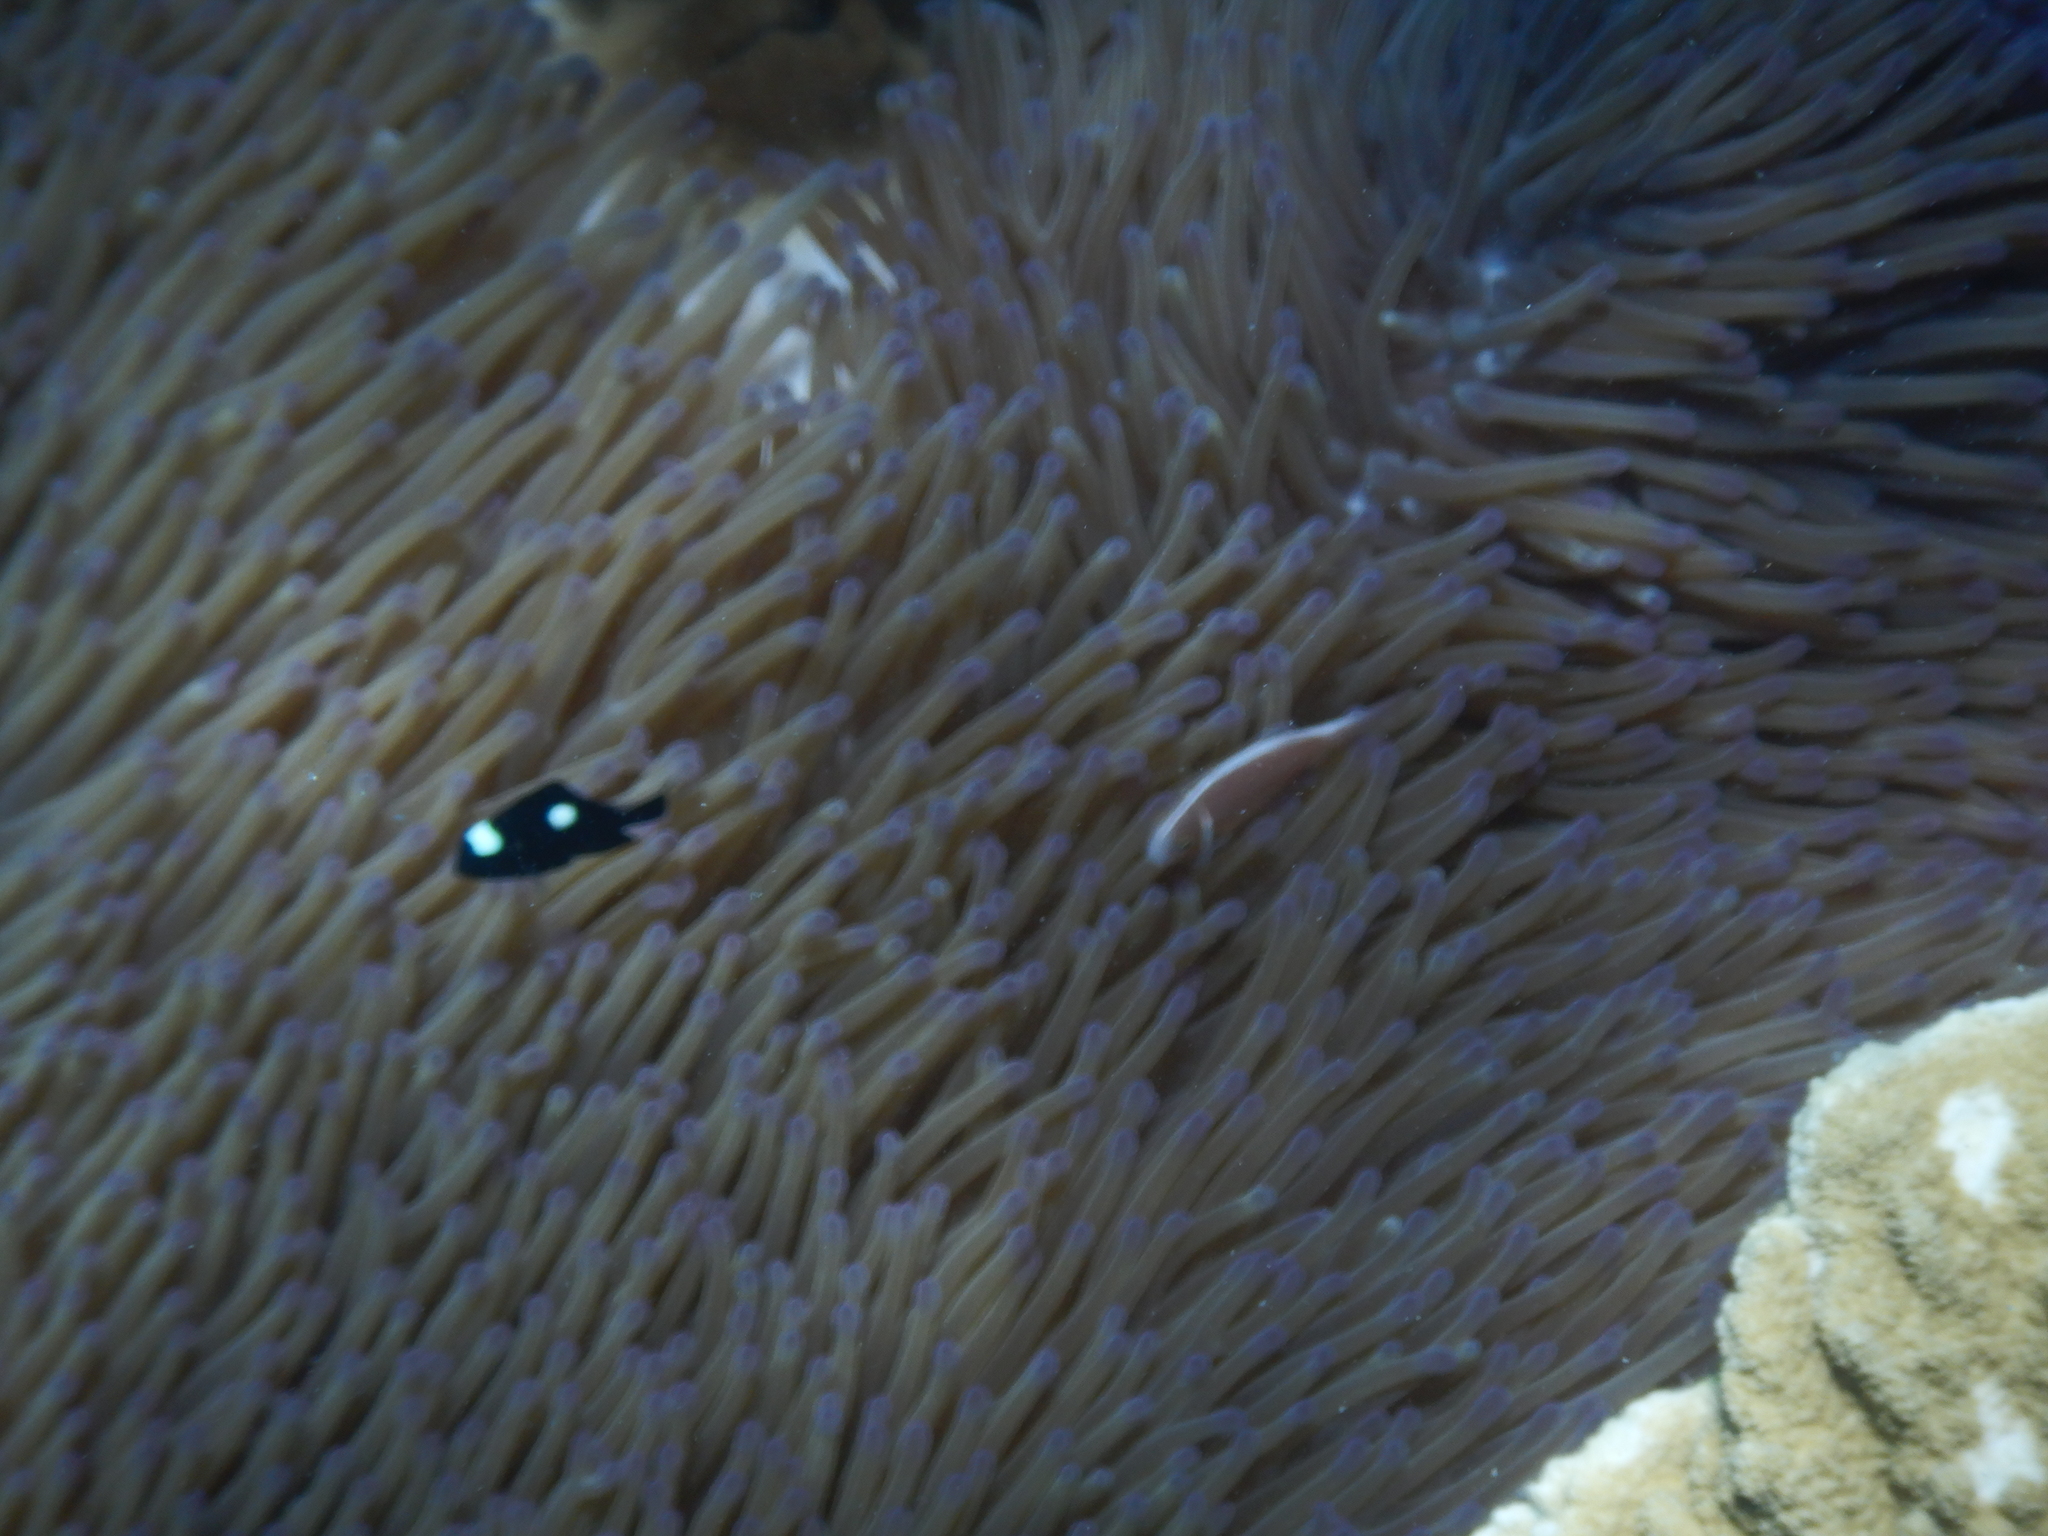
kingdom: Animalia
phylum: Chordata
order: Perciformes
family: Pomacentridae
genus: Amphiprion
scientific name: Amphiprion perideraion
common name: Pink anemonefish
